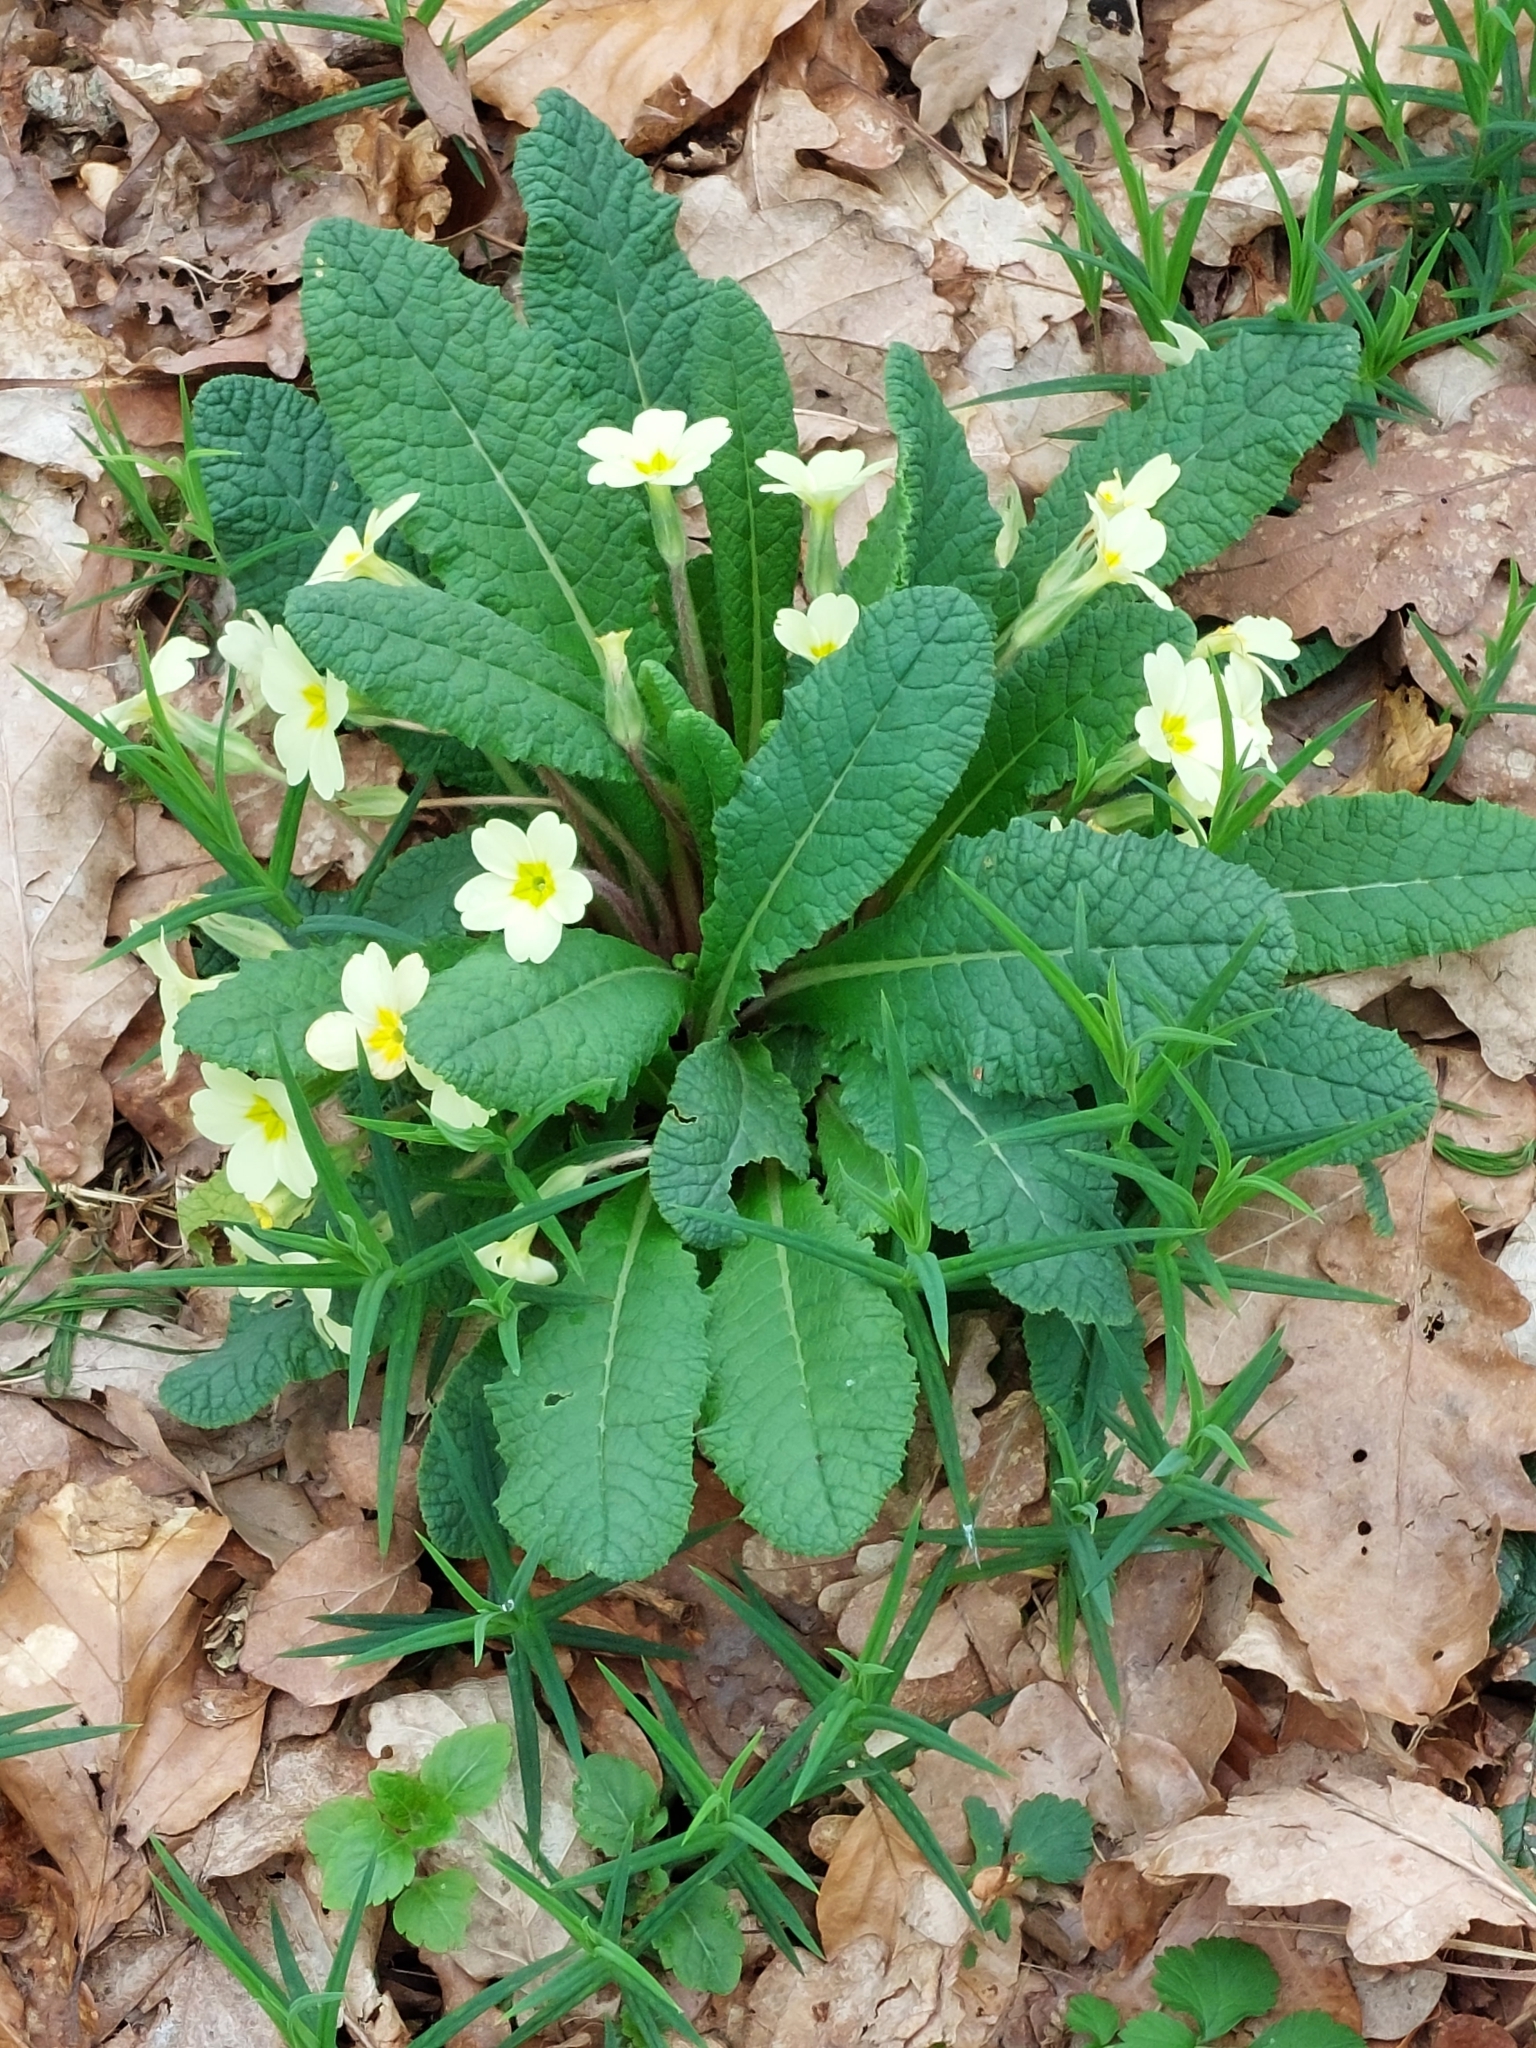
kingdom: Plantae
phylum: Tracheophyta
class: Magnoliopsida
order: Ericales
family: Primulaceae
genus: Primula
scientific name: Primula vulgaris
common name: Primrose
